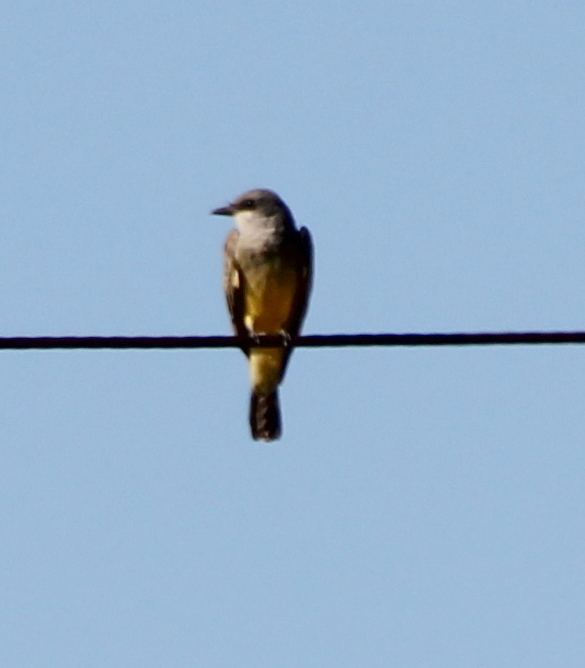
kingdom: Animalia
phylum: Chordata
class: Aves
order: Passeriformes
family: Tyrannidae
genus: Tyrannus
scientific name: Tyrannus vociferans
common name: Cassin's kingbird
